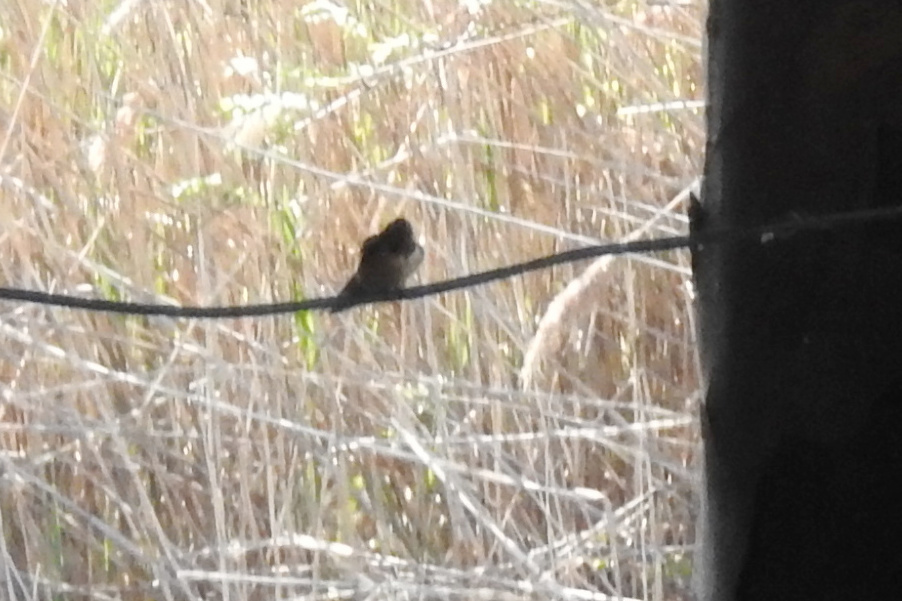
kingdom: Animalia
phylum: Chordata
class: Aves
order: Passeriformes
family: Hirundinidae
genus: Hirundo
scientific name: Hirundo rustica
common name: Barn swallow
